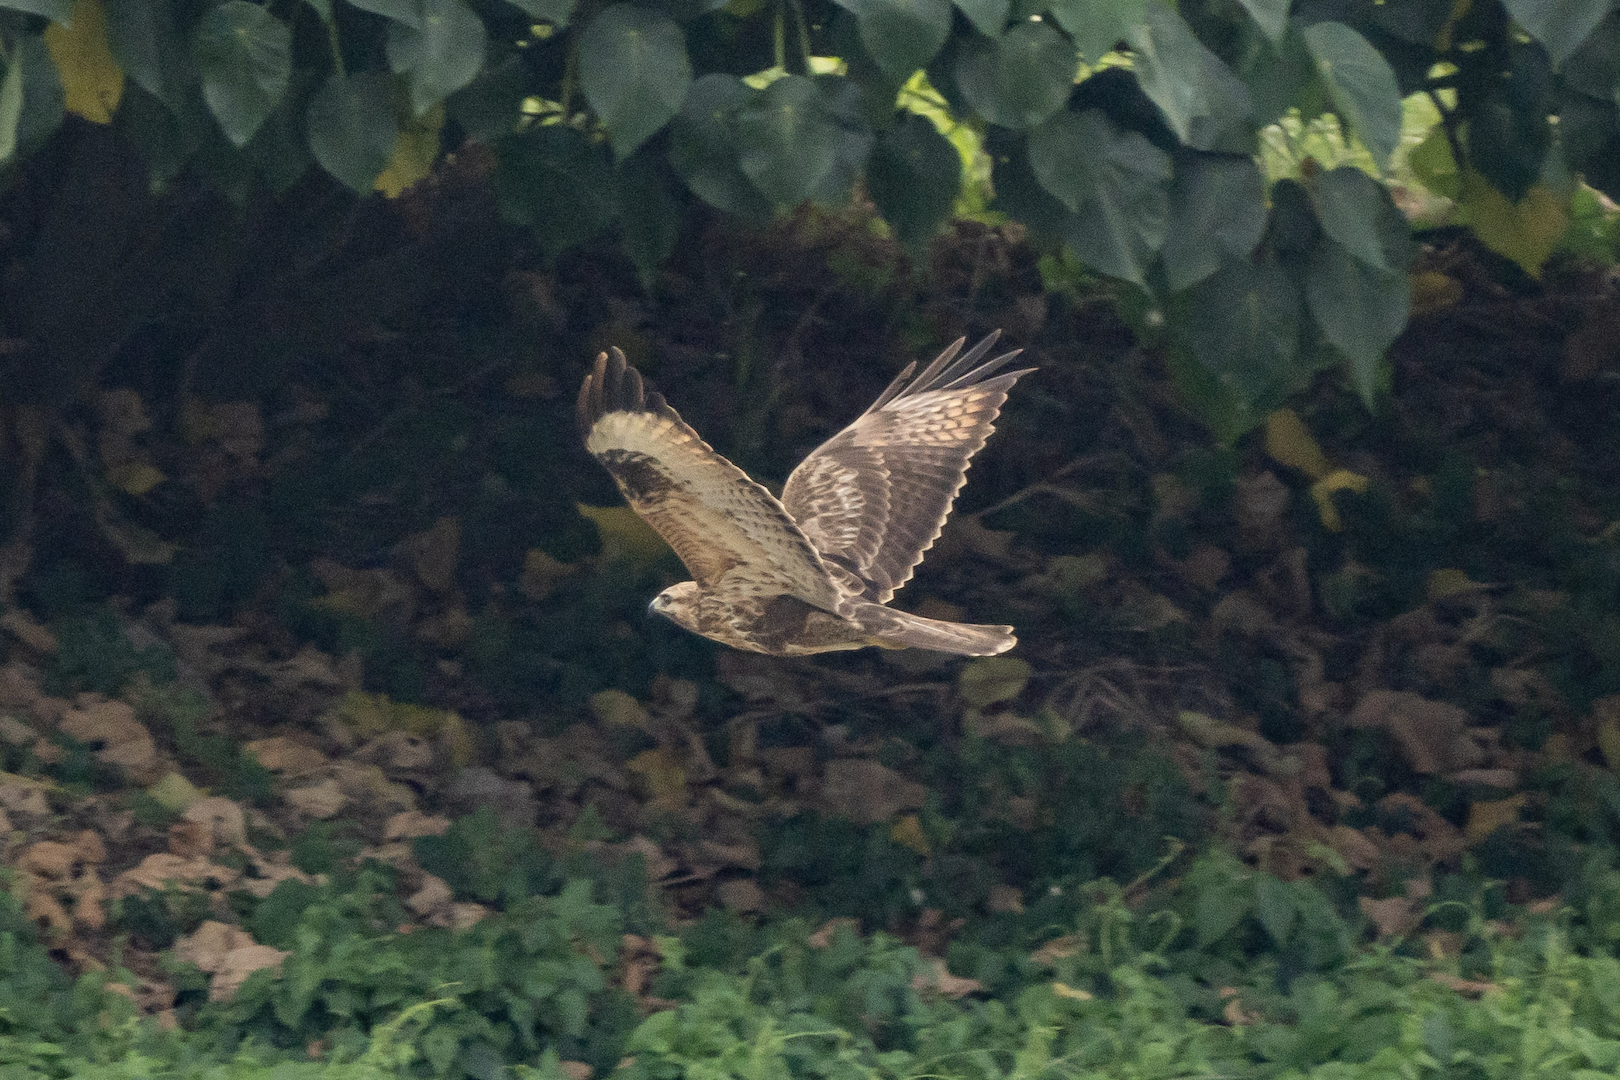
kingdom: Animalia
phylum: Chordata
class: Aves
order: Accipitriformes
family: Accipitridae
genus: Buteo
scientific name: Buteo japonicus
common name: Eastern buzzard
